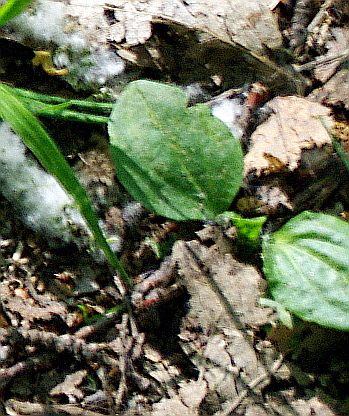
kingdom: Plantae
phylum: Tracheophyta
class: Magnoliopsida
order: Lamiales
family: Plantaginaceae
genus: Plantago
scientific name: Plantago major
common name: Common plantain
